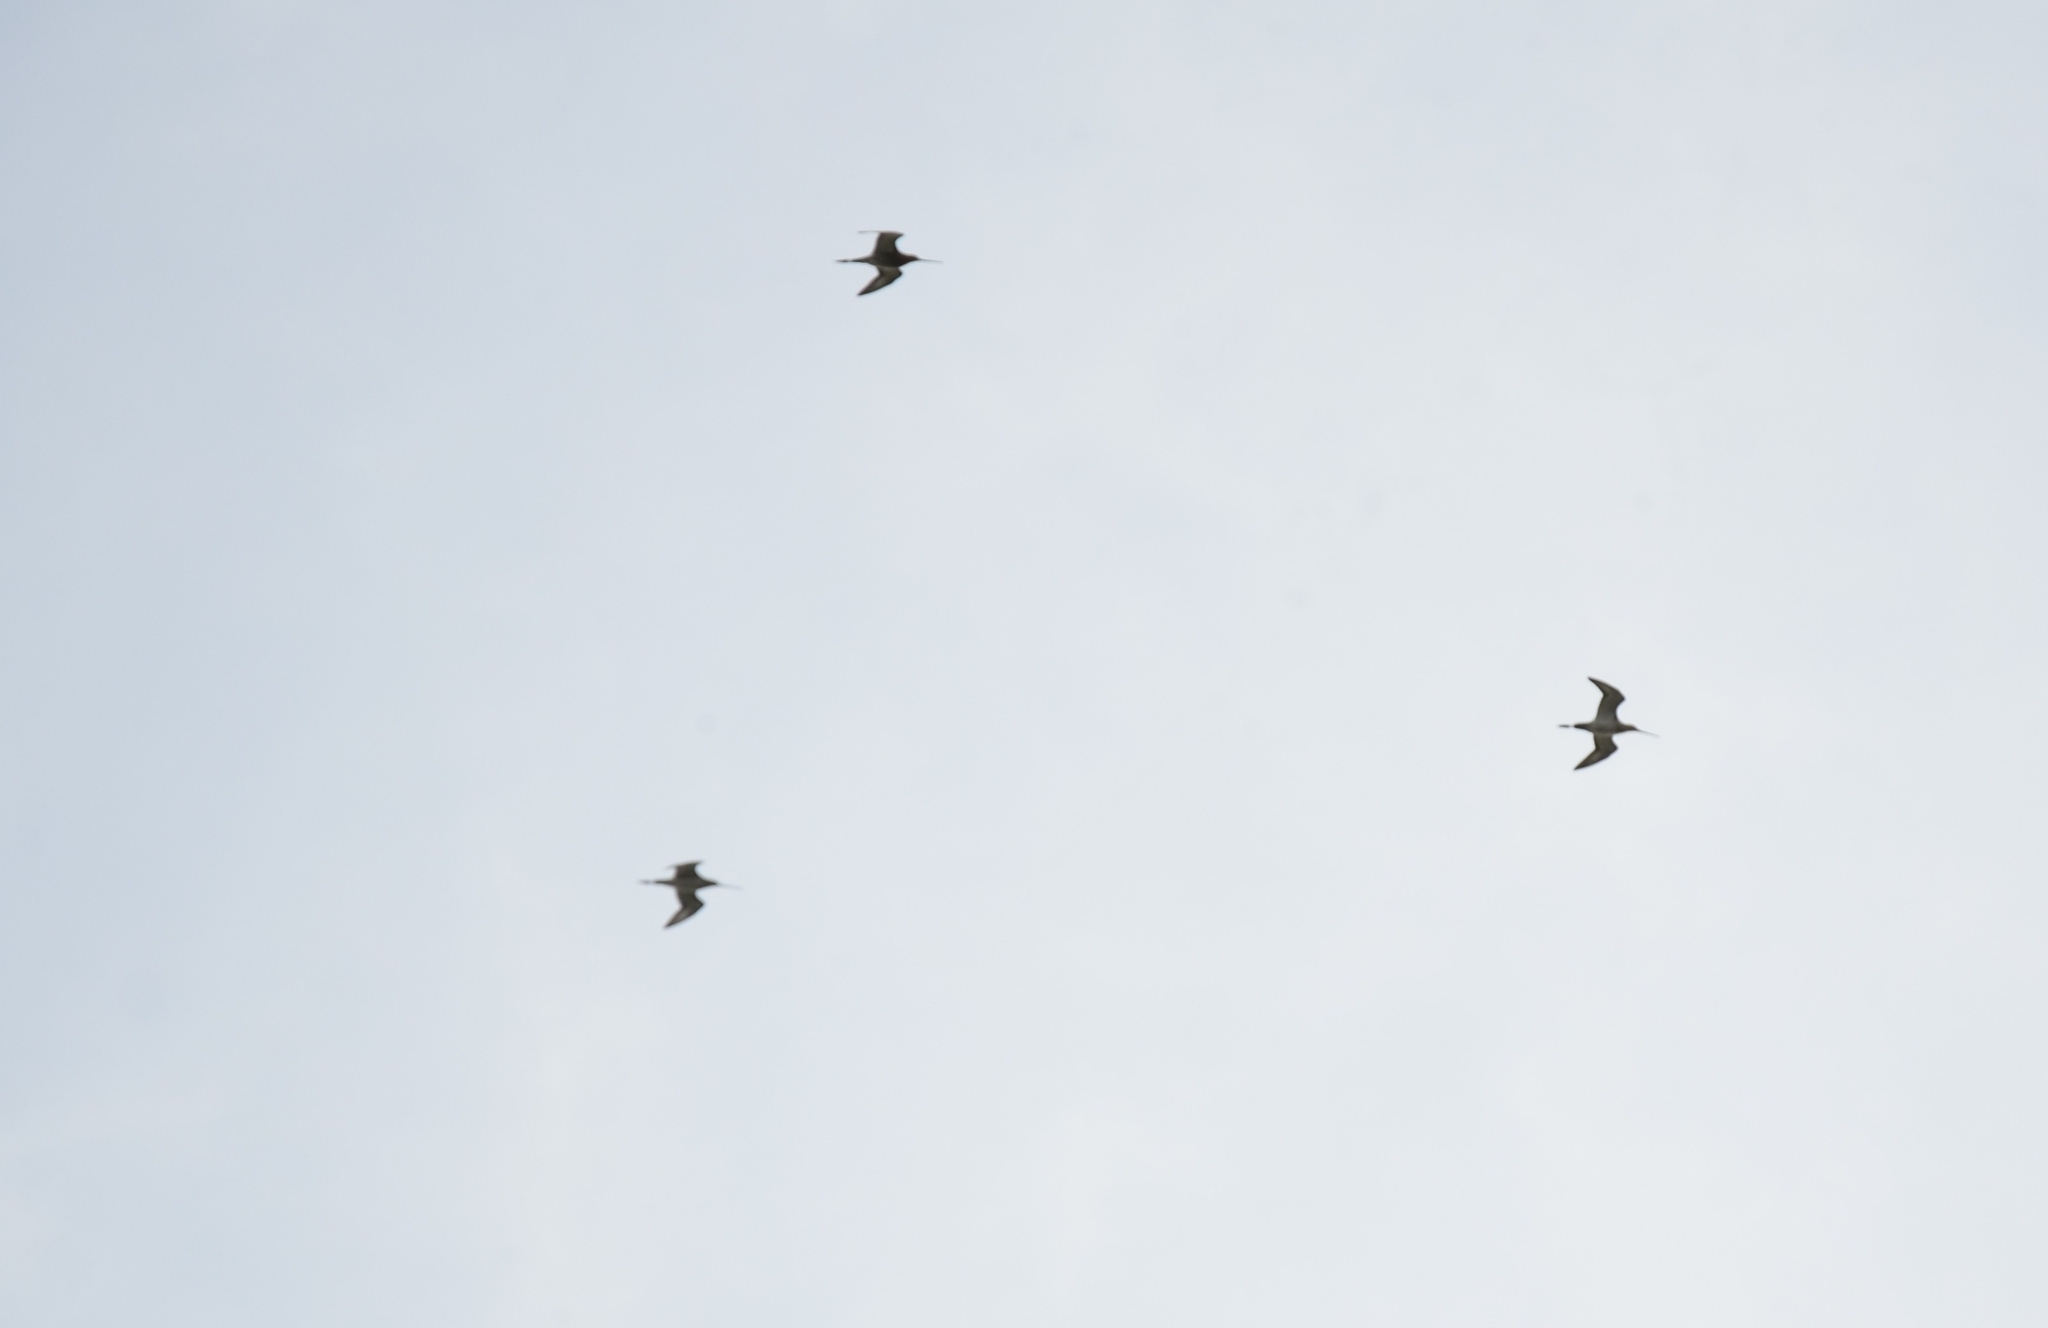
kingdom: Animalia
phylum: Chordata
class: Aves
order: Charadriiformes
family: Scolopacidae
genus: Limosa
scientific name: Limosa limosa
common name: Black-tailed godwit
